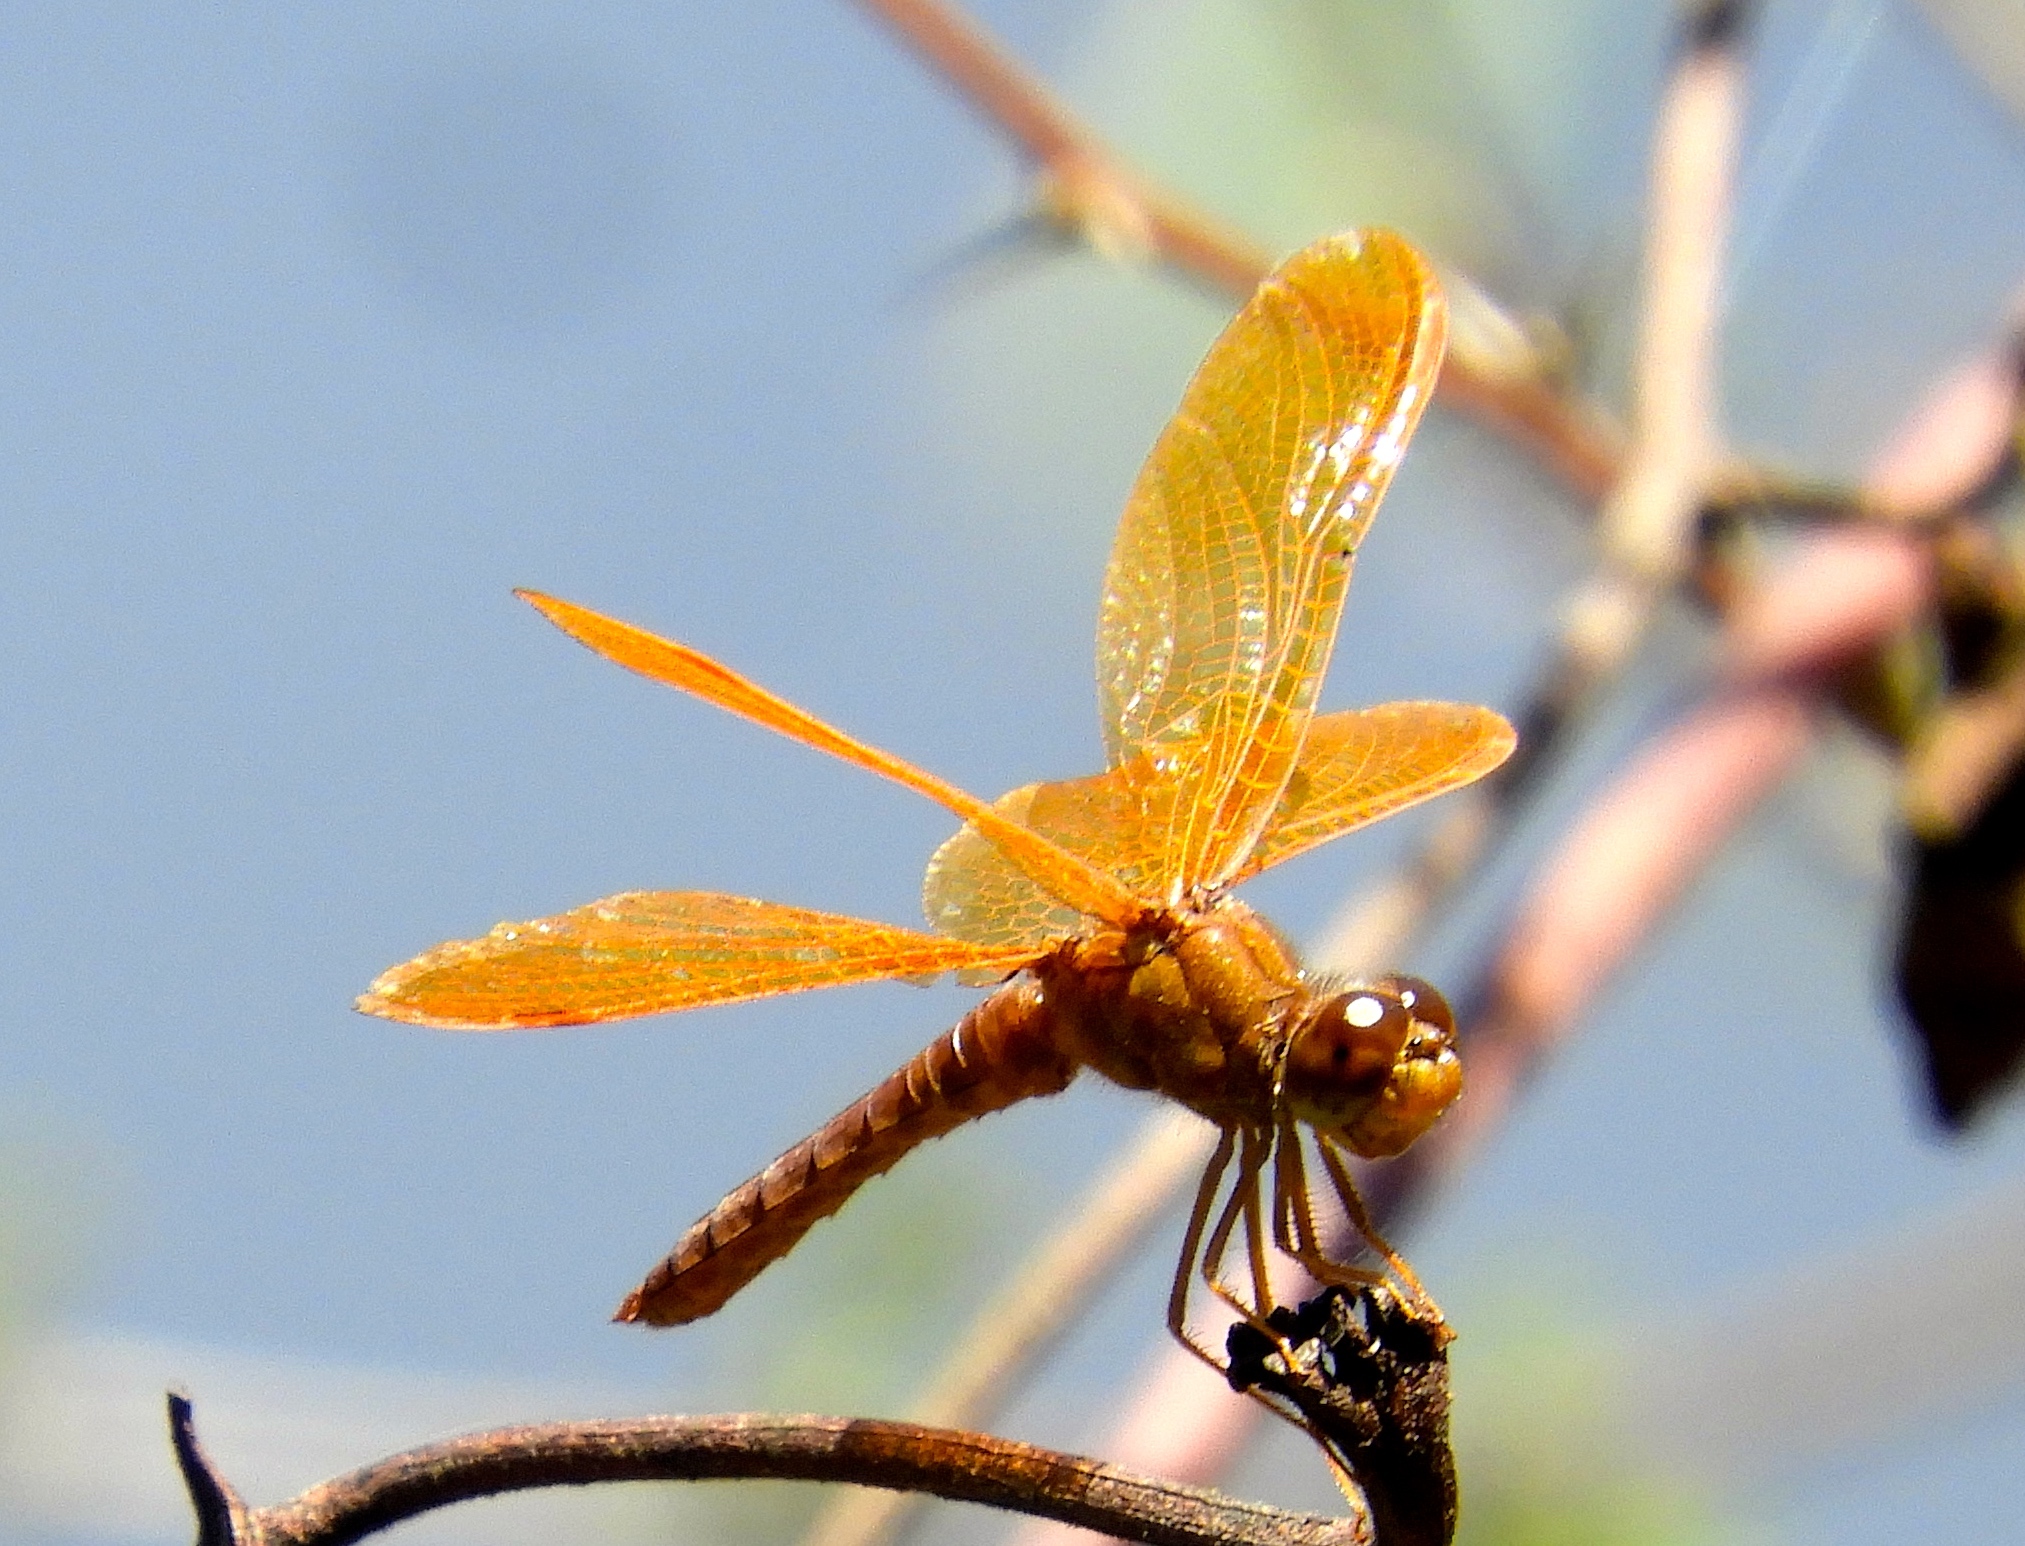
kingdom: Animalia
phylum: Arthropoda
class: Insecta
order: Odonata
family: Libellulidae
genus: Perithemis
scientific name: Perithemis intensa
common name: Mexican amberwing
